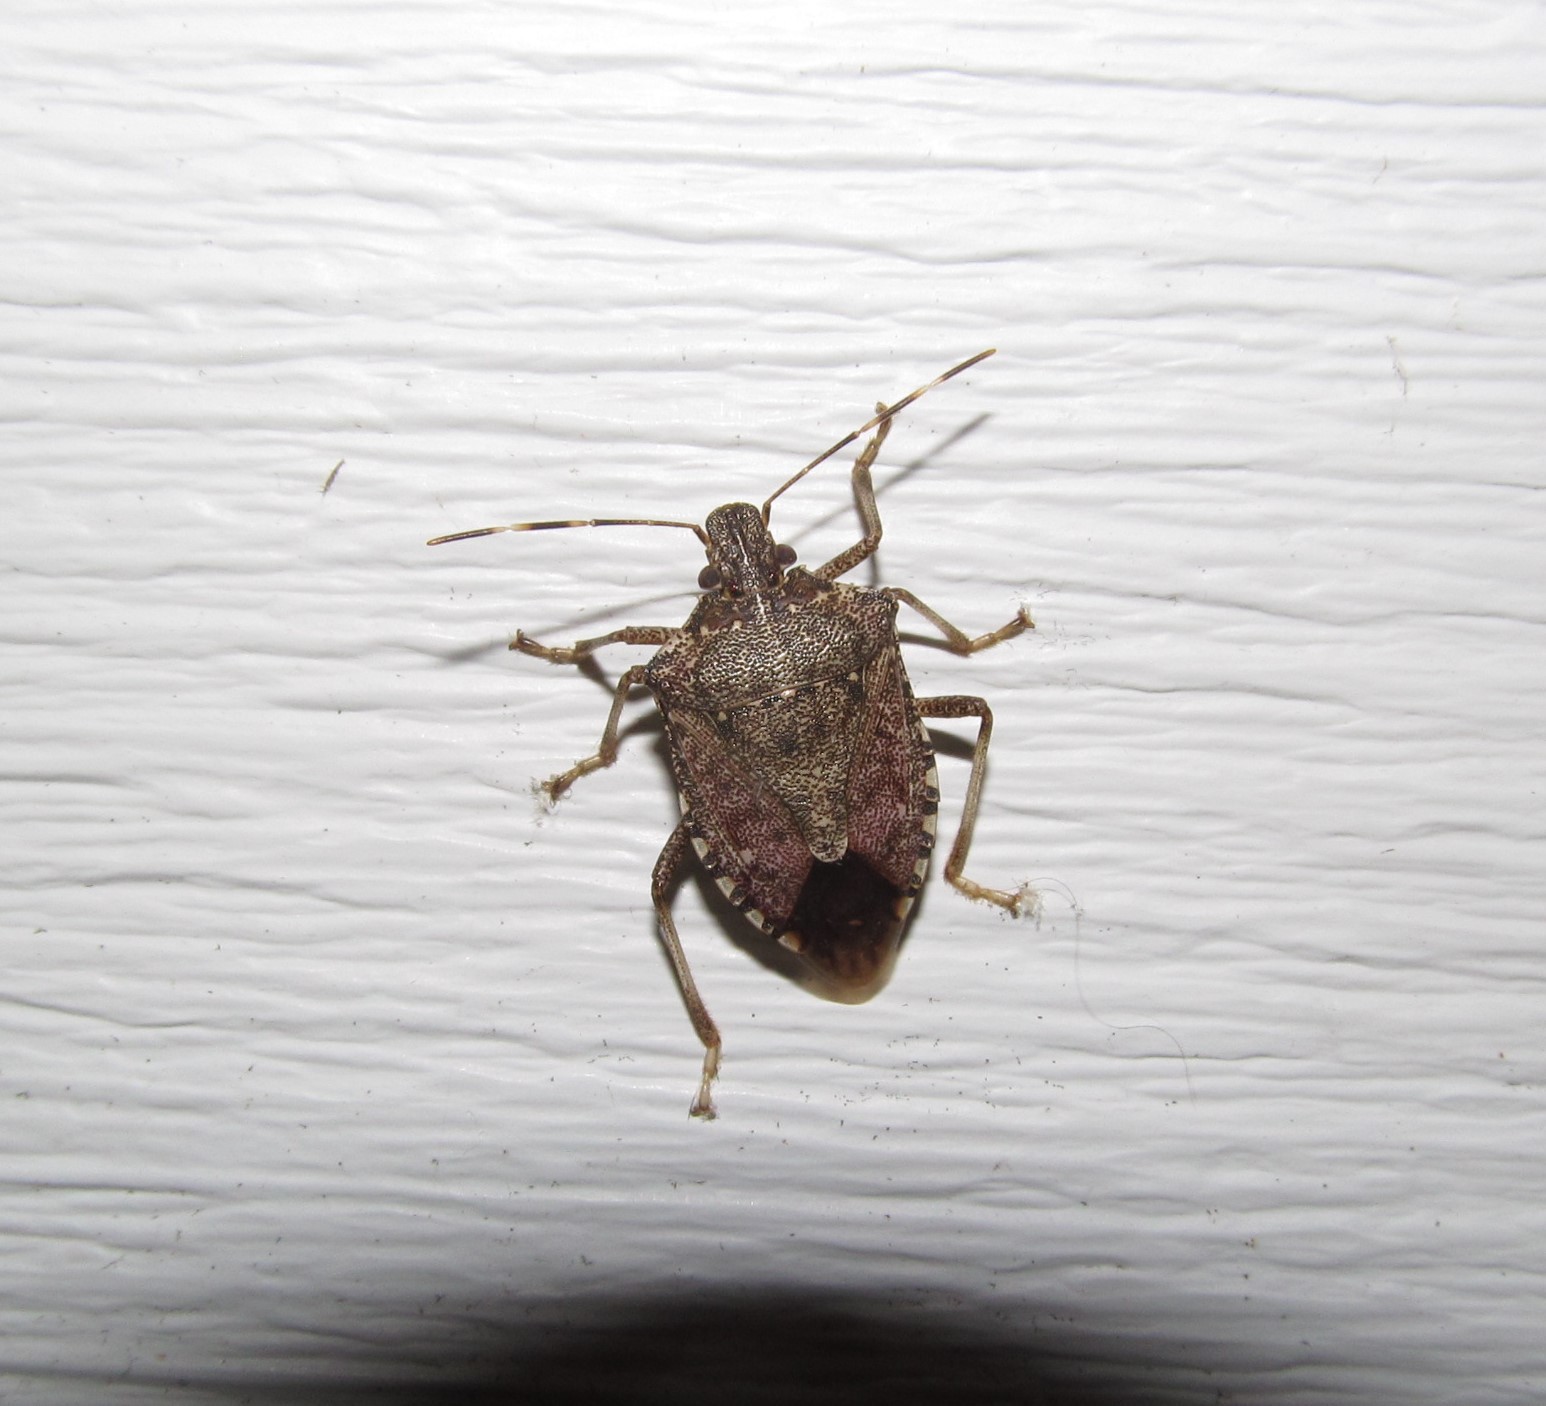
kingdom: Animalia
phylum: Arthropoda
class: Insecta
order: Hemiptera
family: Pentatomidae
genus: Halyomorpha
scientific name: Halyomorpha halys
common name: Brown marmorated stink bug
